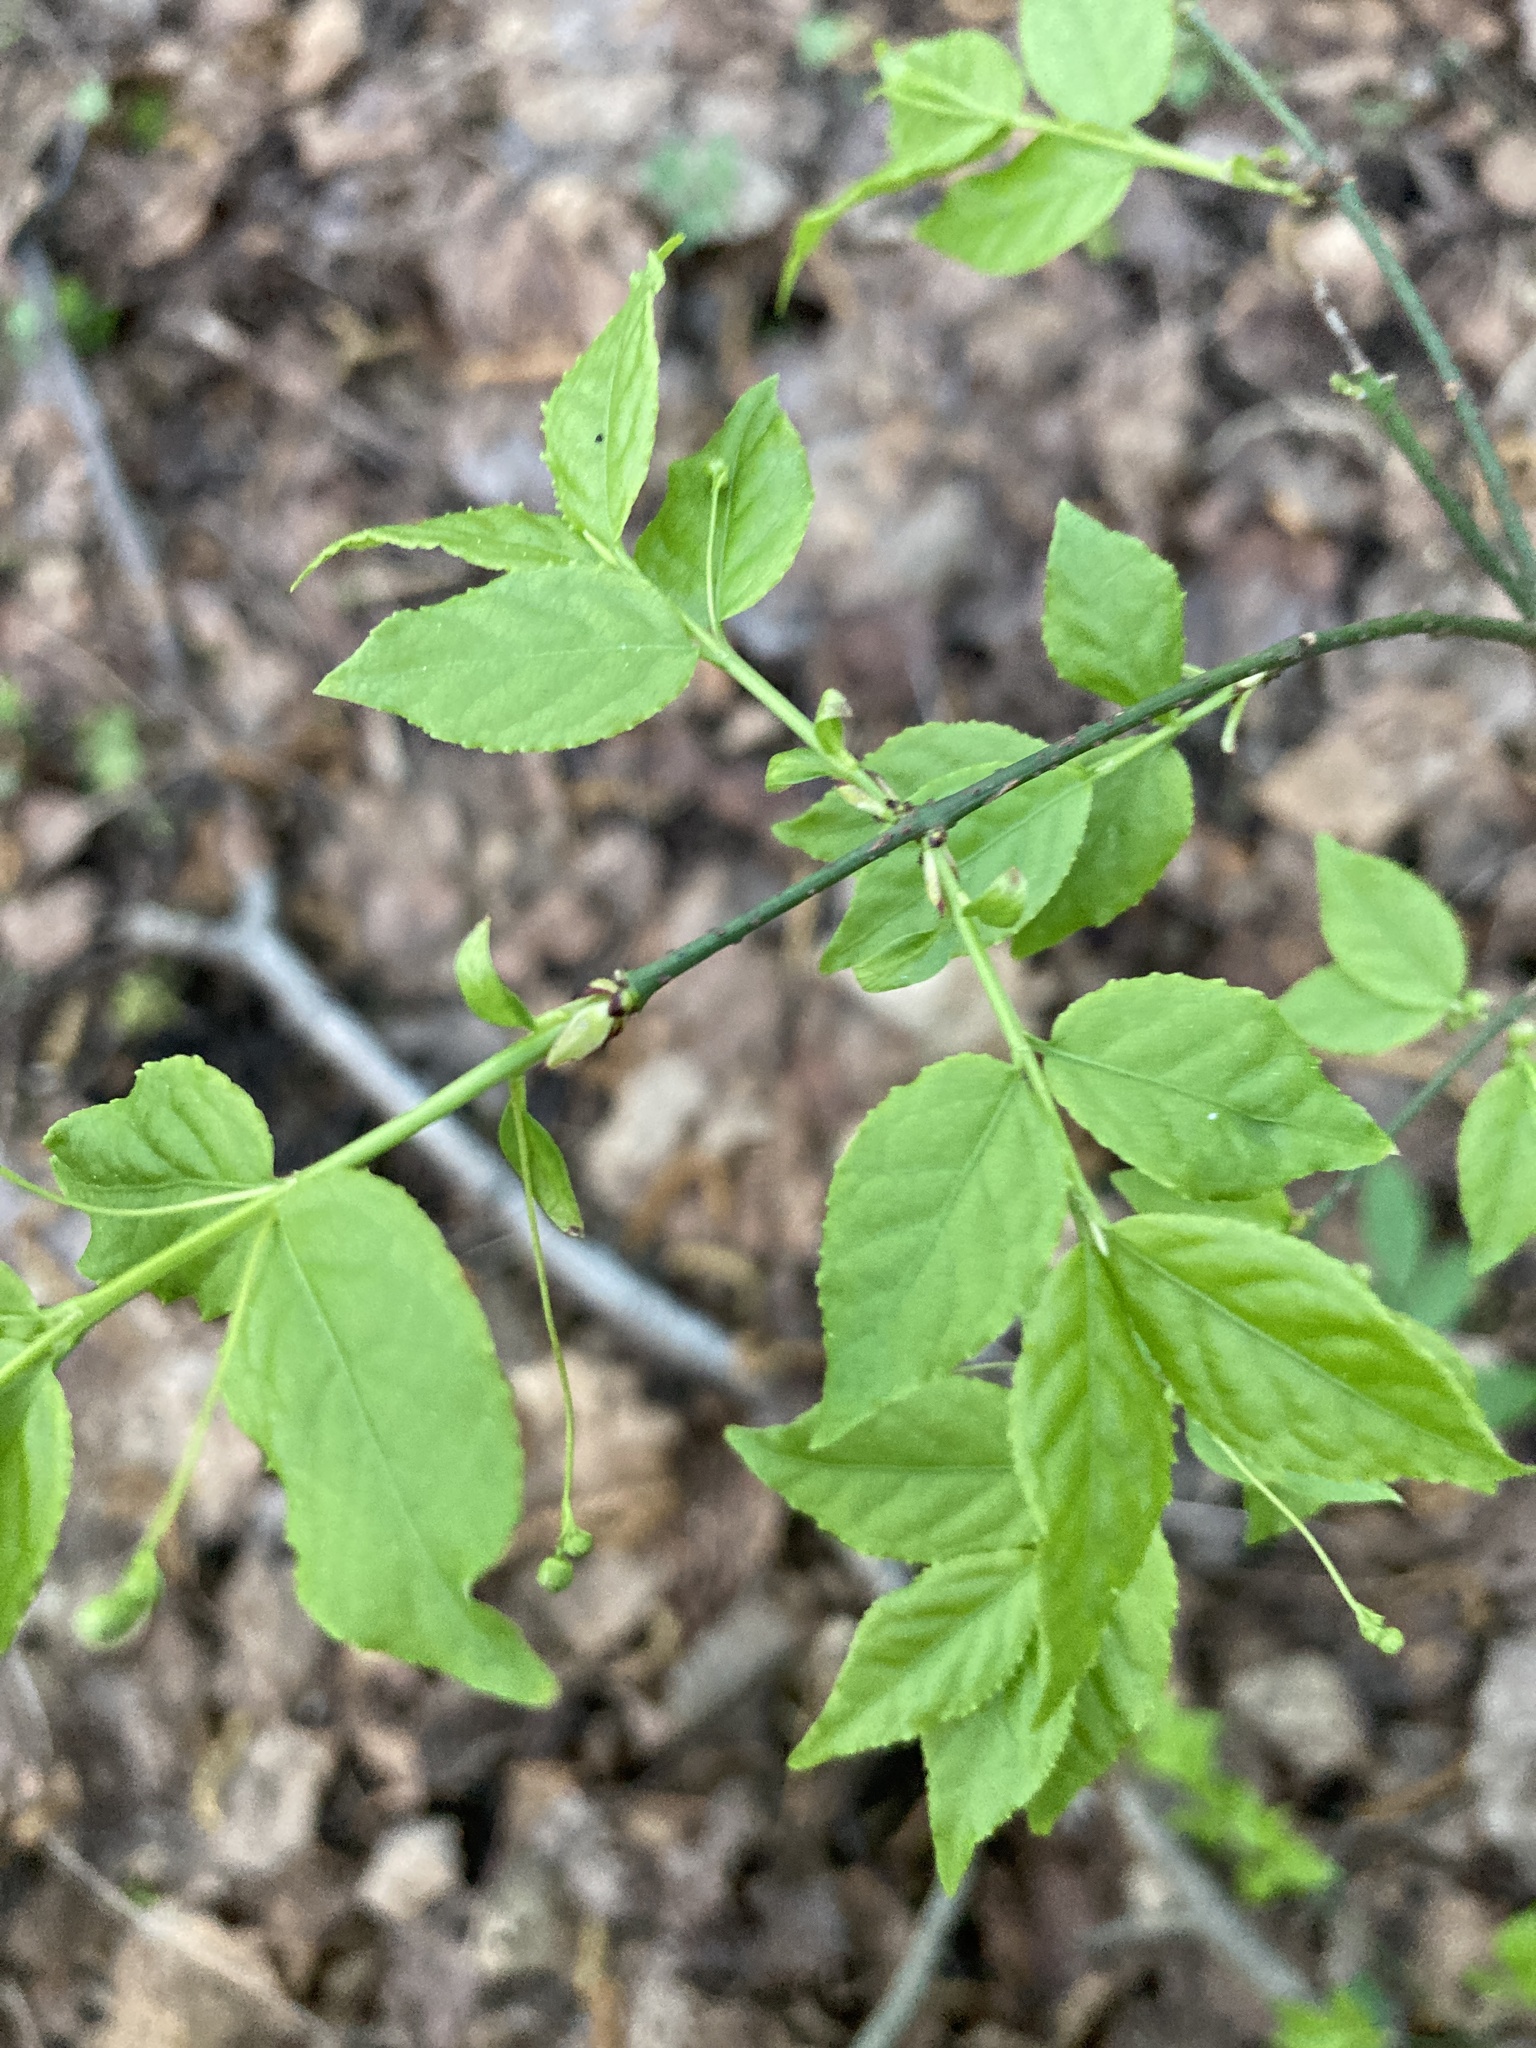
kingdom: Plantae
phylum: Tracheophyta
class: Magnoliopsida
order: Celastrales
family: Celastraceae
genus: Euonymus
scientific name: Euonymus verrucosus
